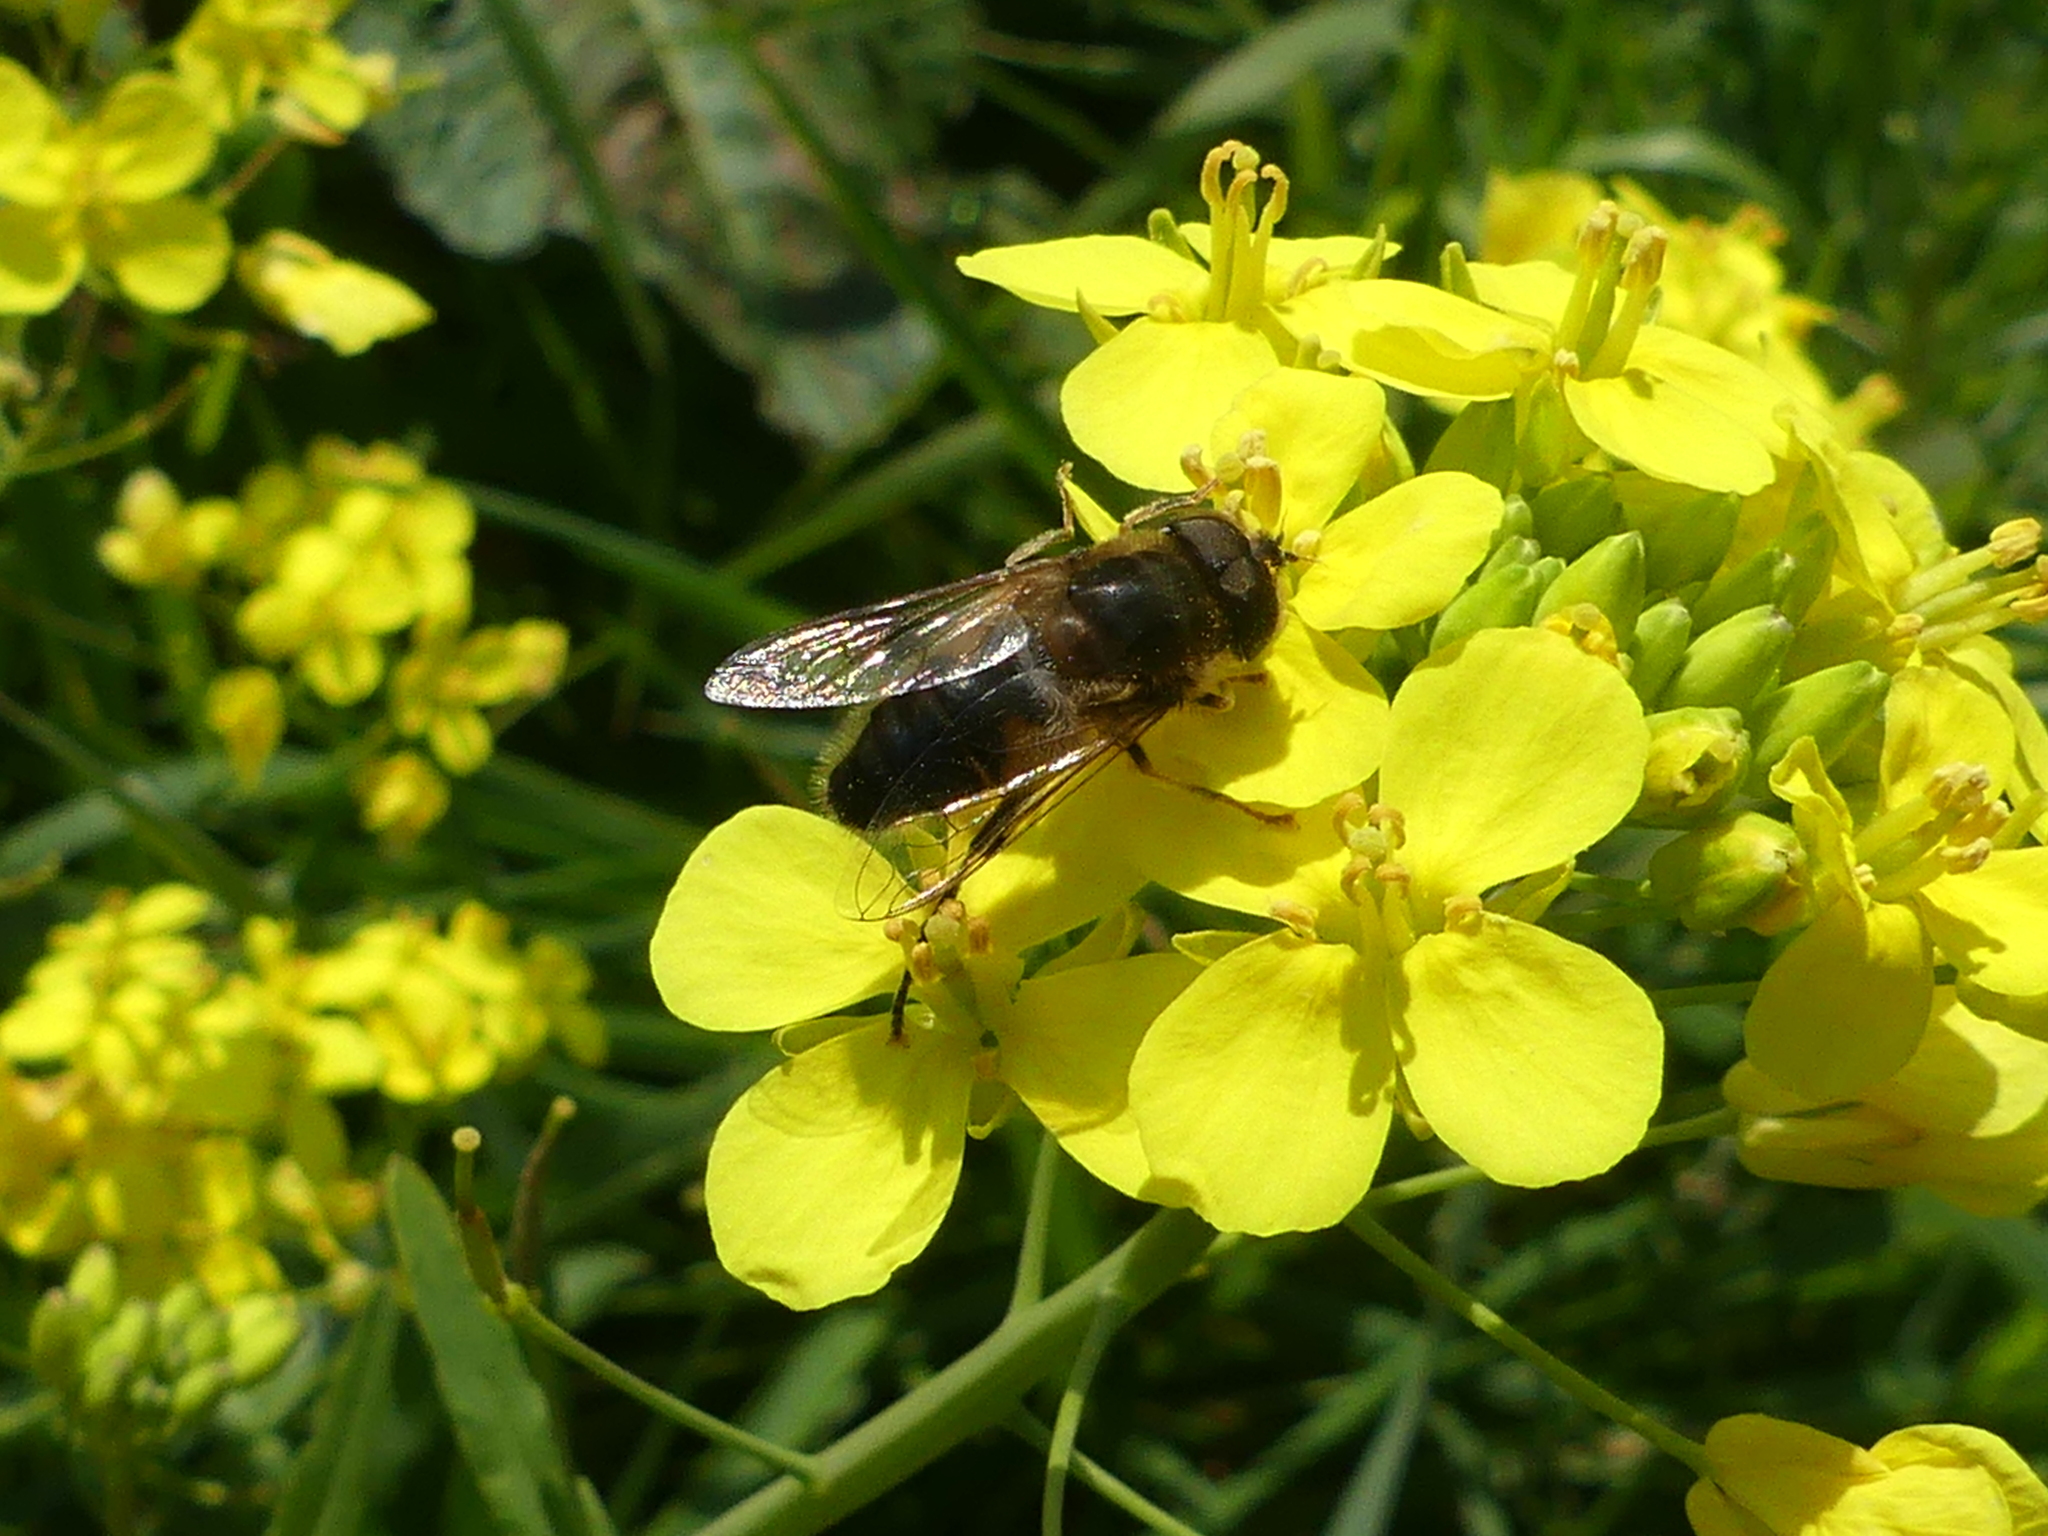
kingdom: Animalia
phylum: Arthropoda
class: Insecta
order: Diptera
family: Syrphidae
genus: Eristalis
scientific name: Eristalis pertinax
